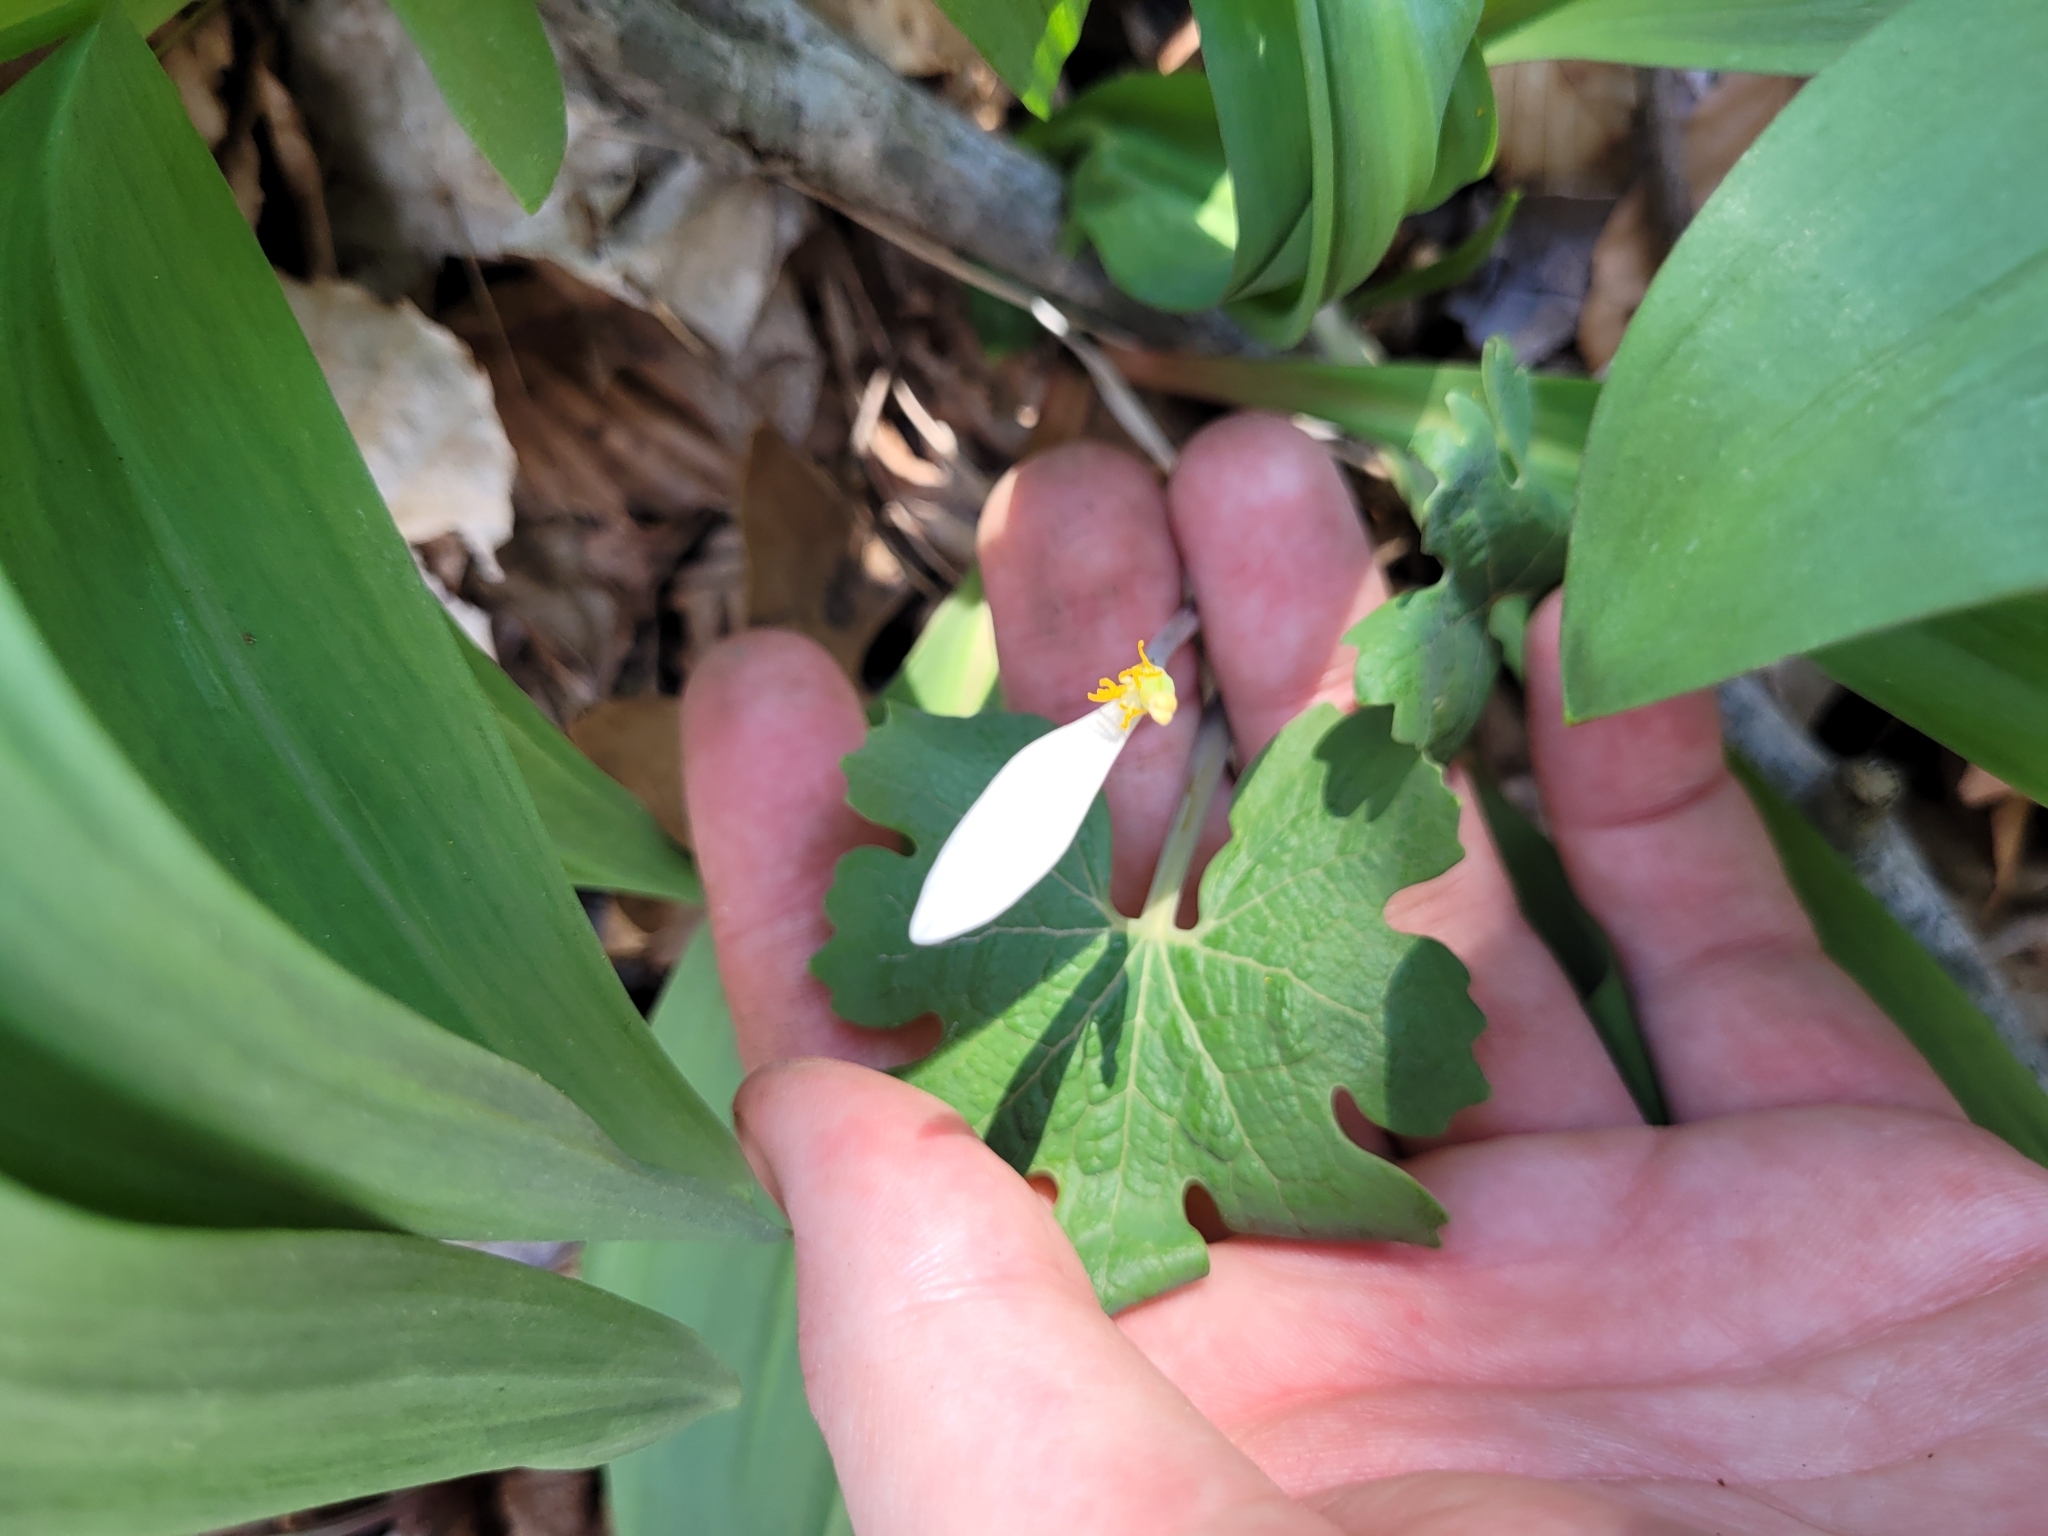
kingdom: Plantae
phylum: Tracheophyta
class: Magnoliopsida
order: Ranunculales
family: Papaveraceae
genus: Sanguinaria
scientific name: Sanguinaria canadensis
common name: Bloodroot
